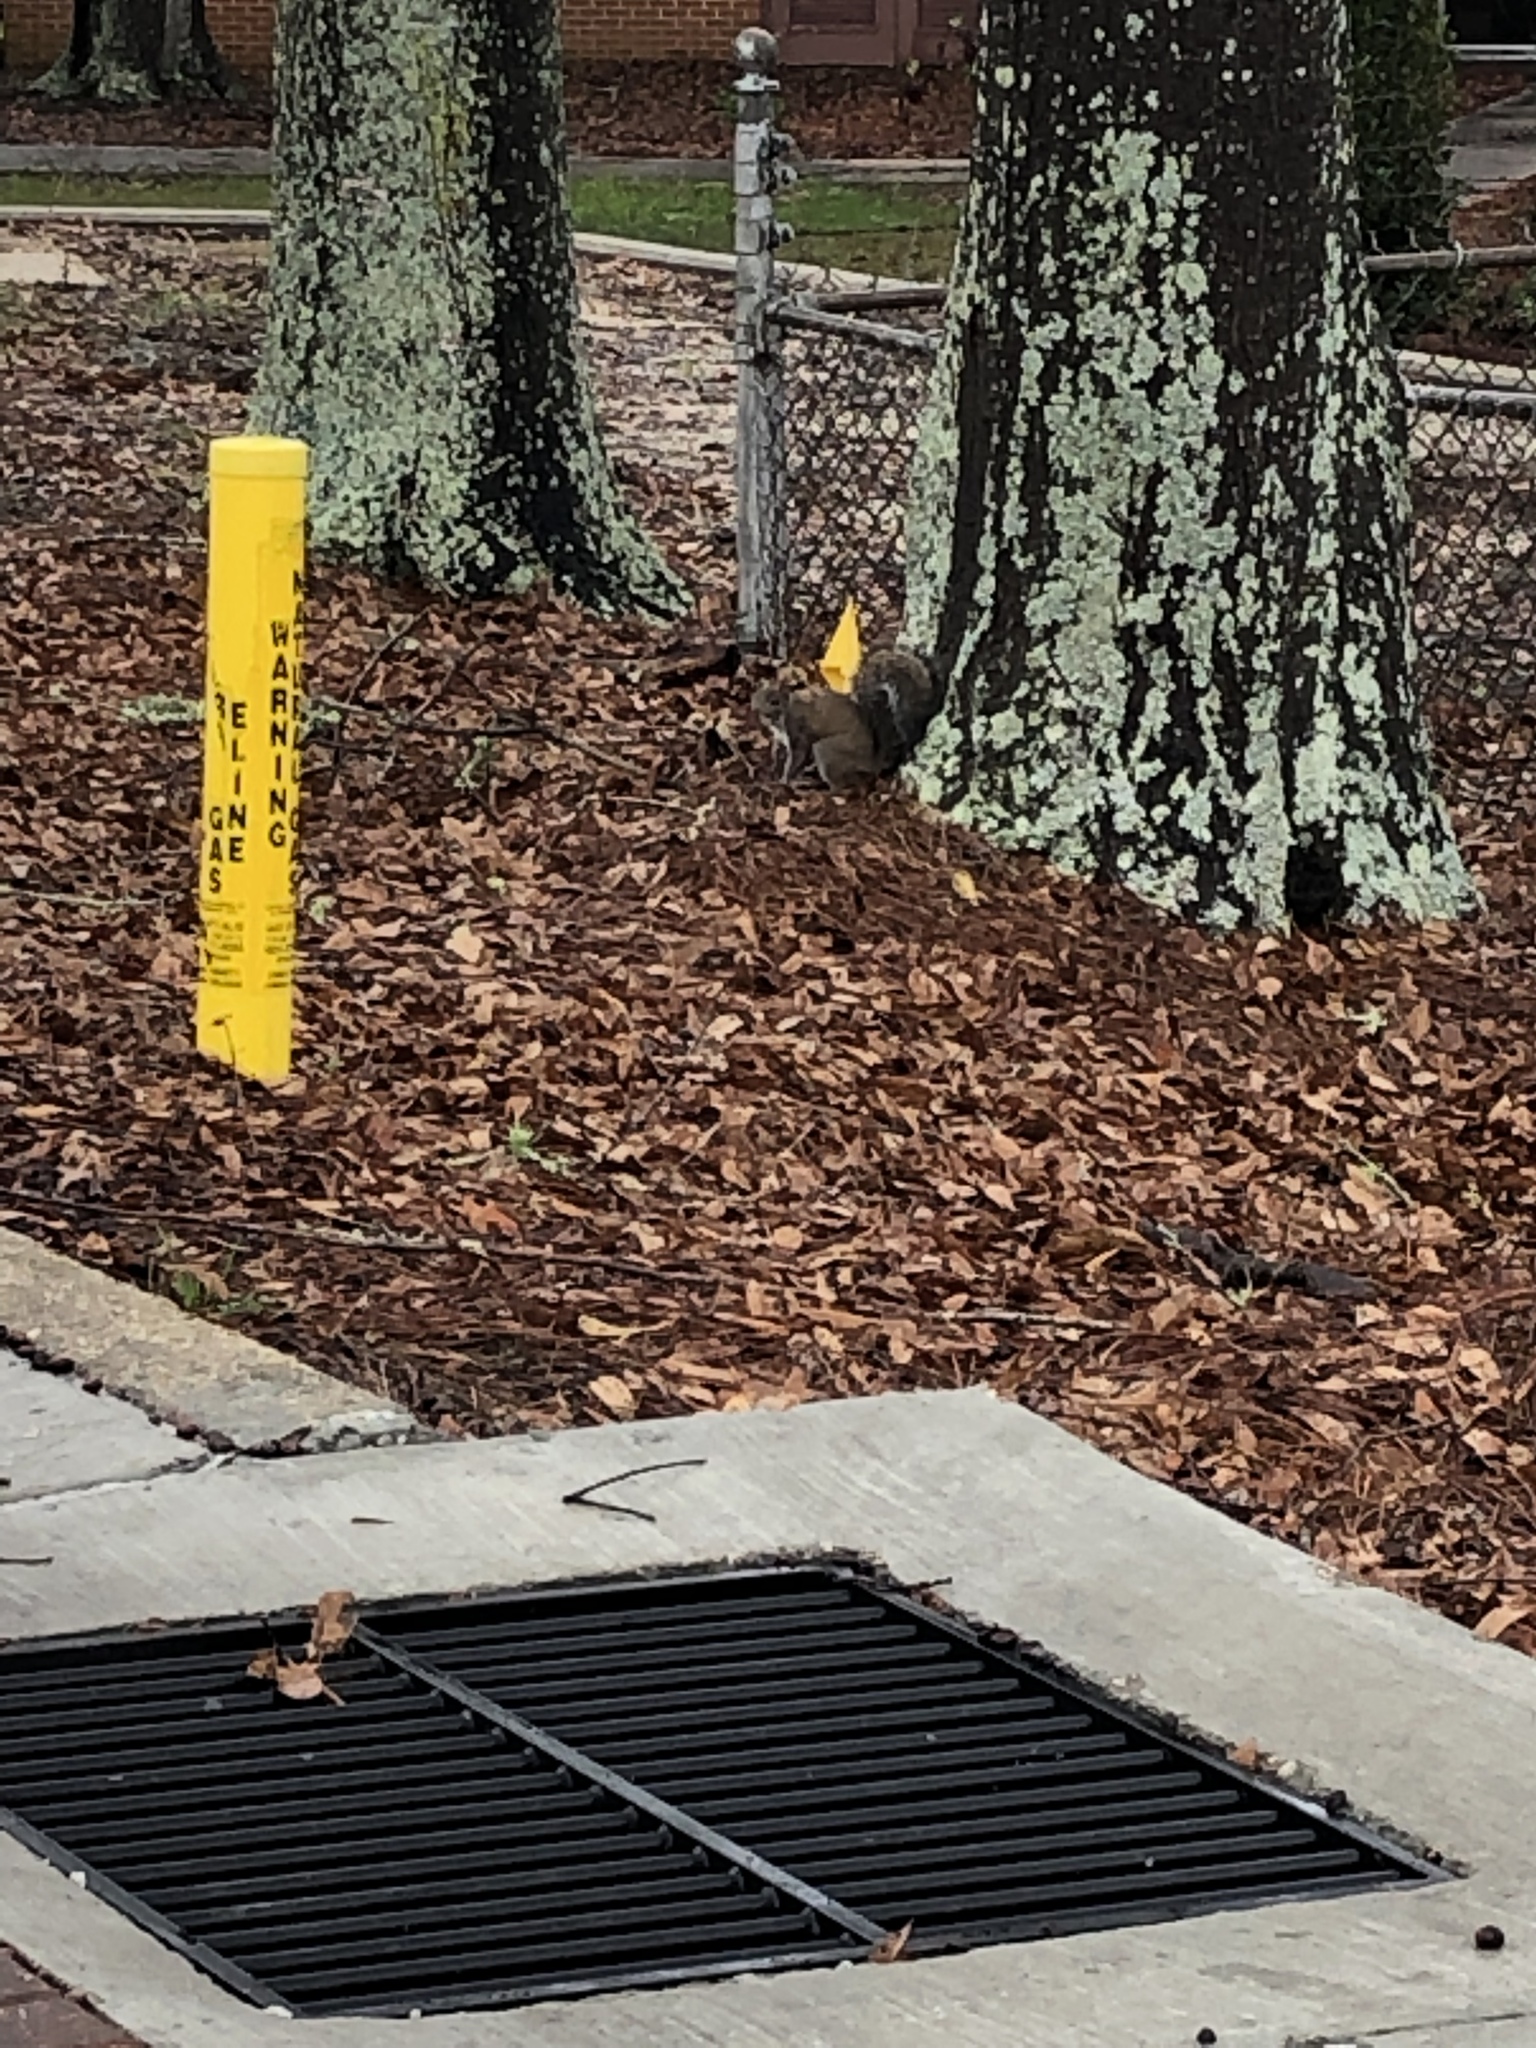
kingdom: Animalia
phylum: Chordata
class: Mammalia
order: Rodentia
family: Sciuridae
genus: Sciurus
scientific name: Sciurus carolinensis
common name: Eastern gray squirrel
